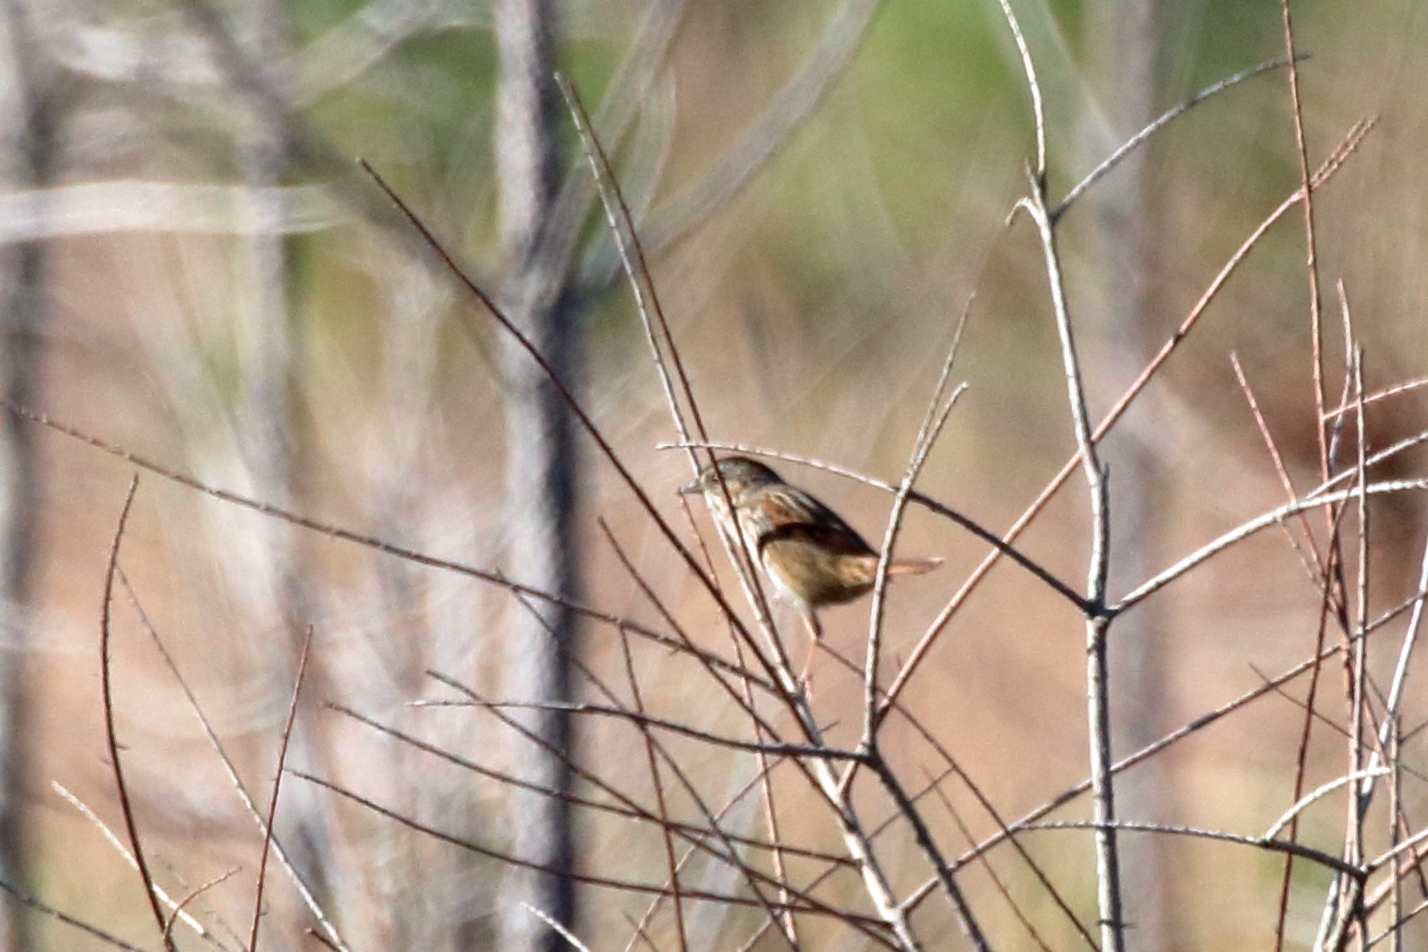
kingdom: Animalia
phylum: Chordata
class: Aves
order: Passeriformes
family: Passerellidae
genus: Melospiza
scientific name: Melospiza georgiana
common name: Swamp sparrow
